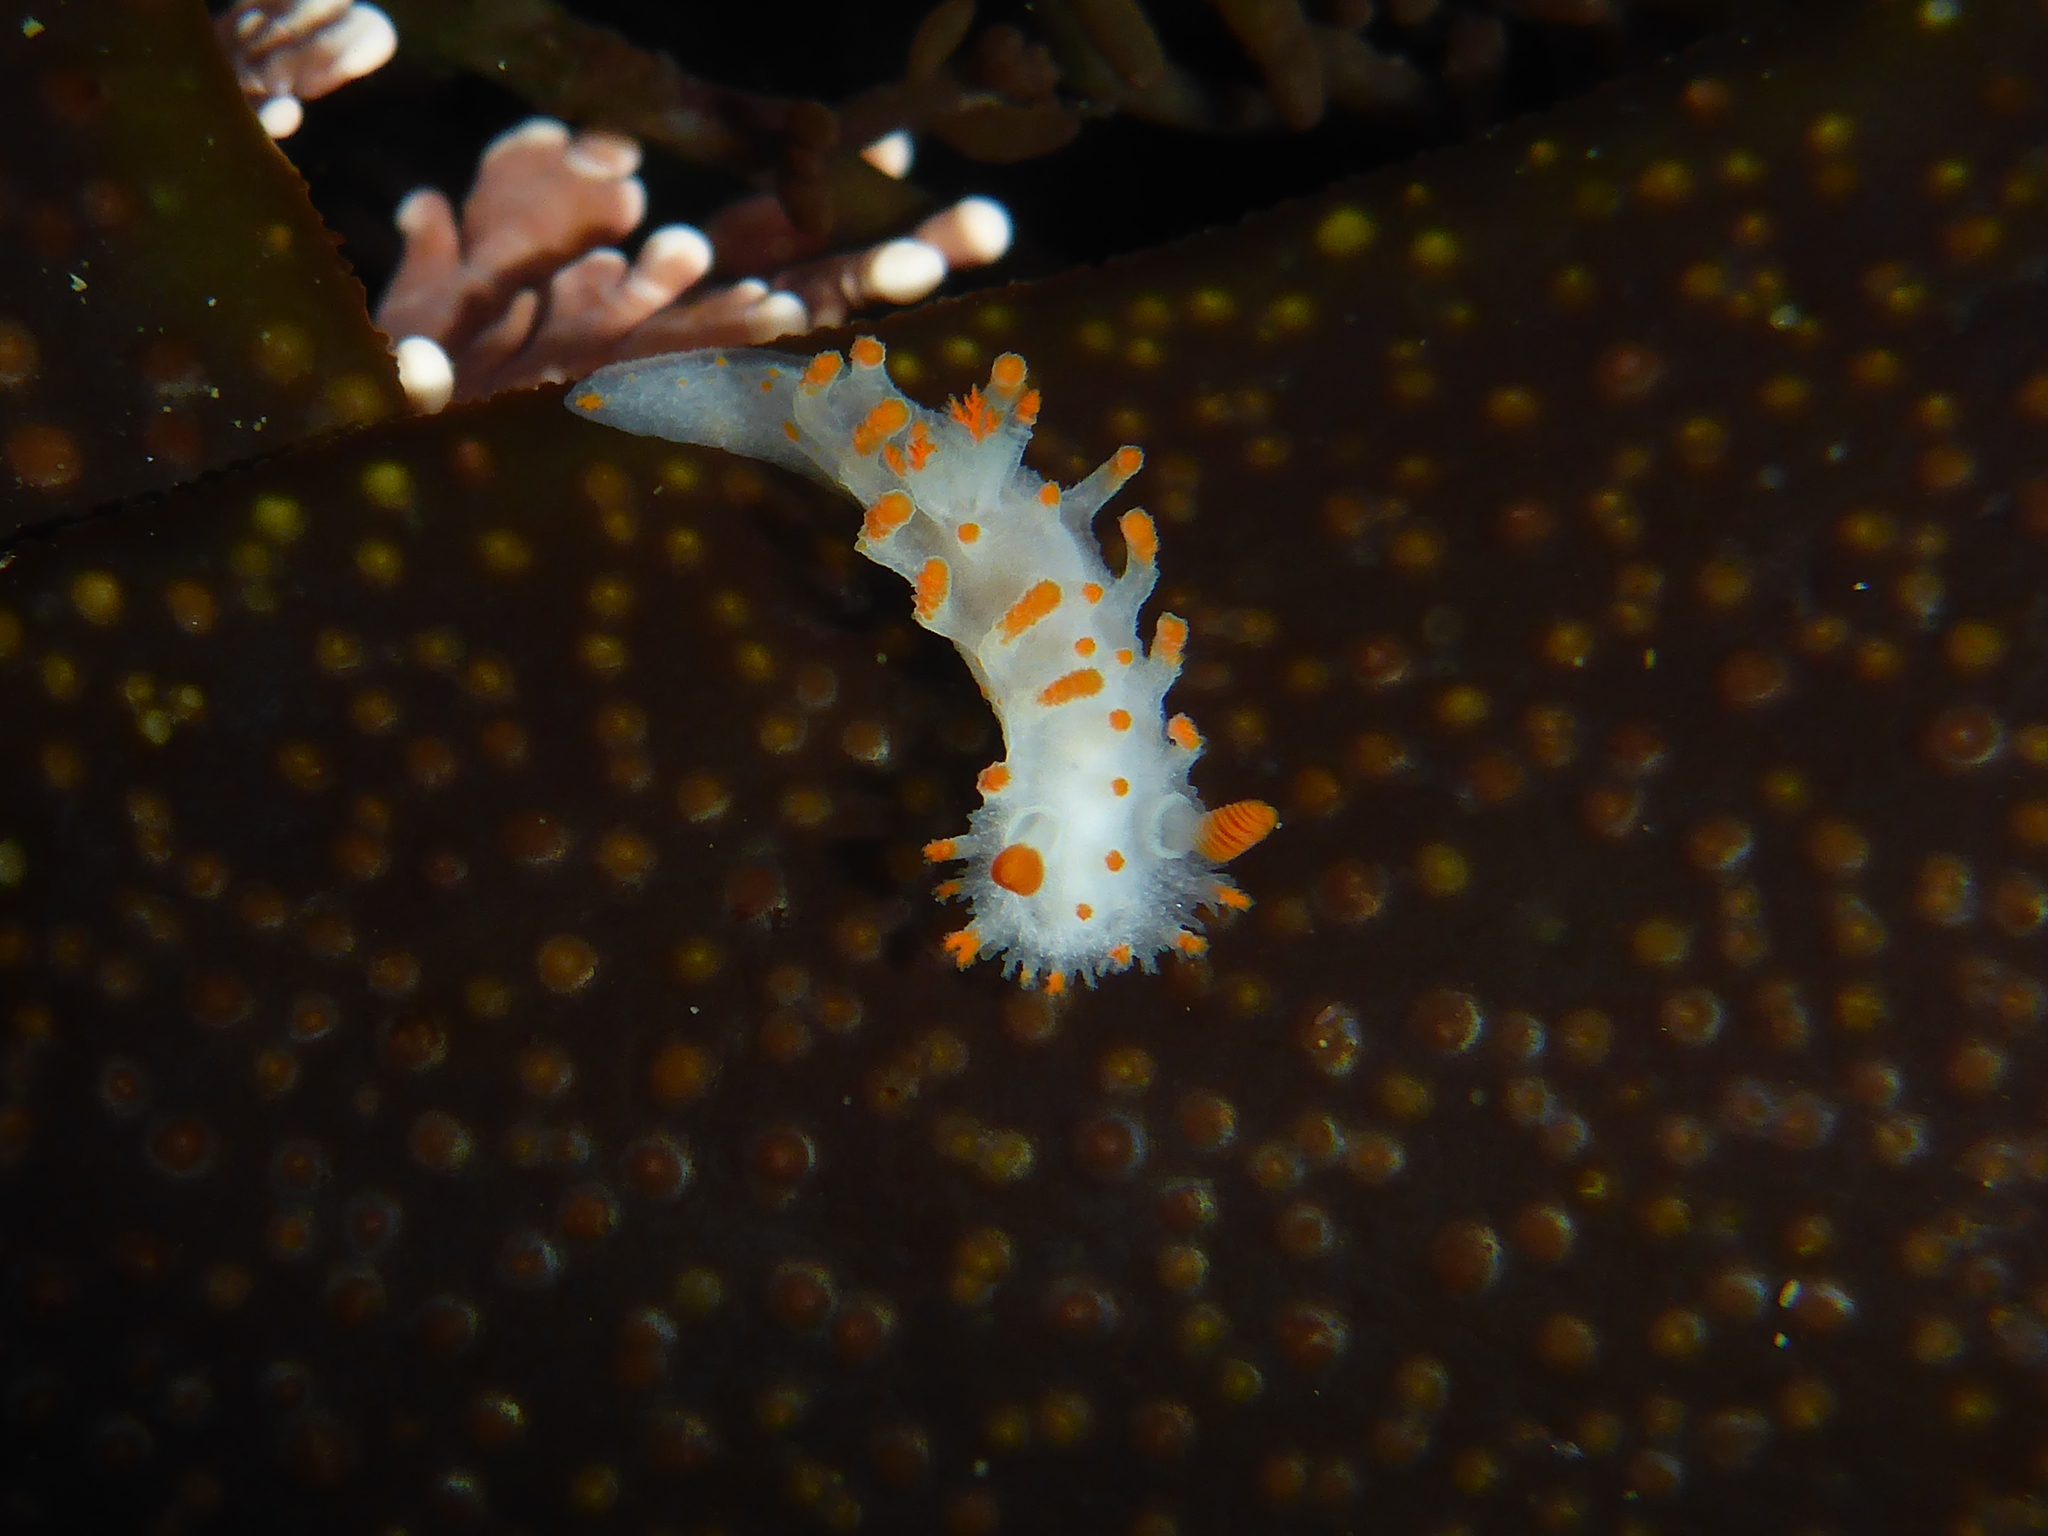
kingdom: Animalia
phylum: Mollusca
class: Gastropoda
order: Nudibranchia
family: Polyceridae
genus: Triopha
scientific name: Triopha catalinae
